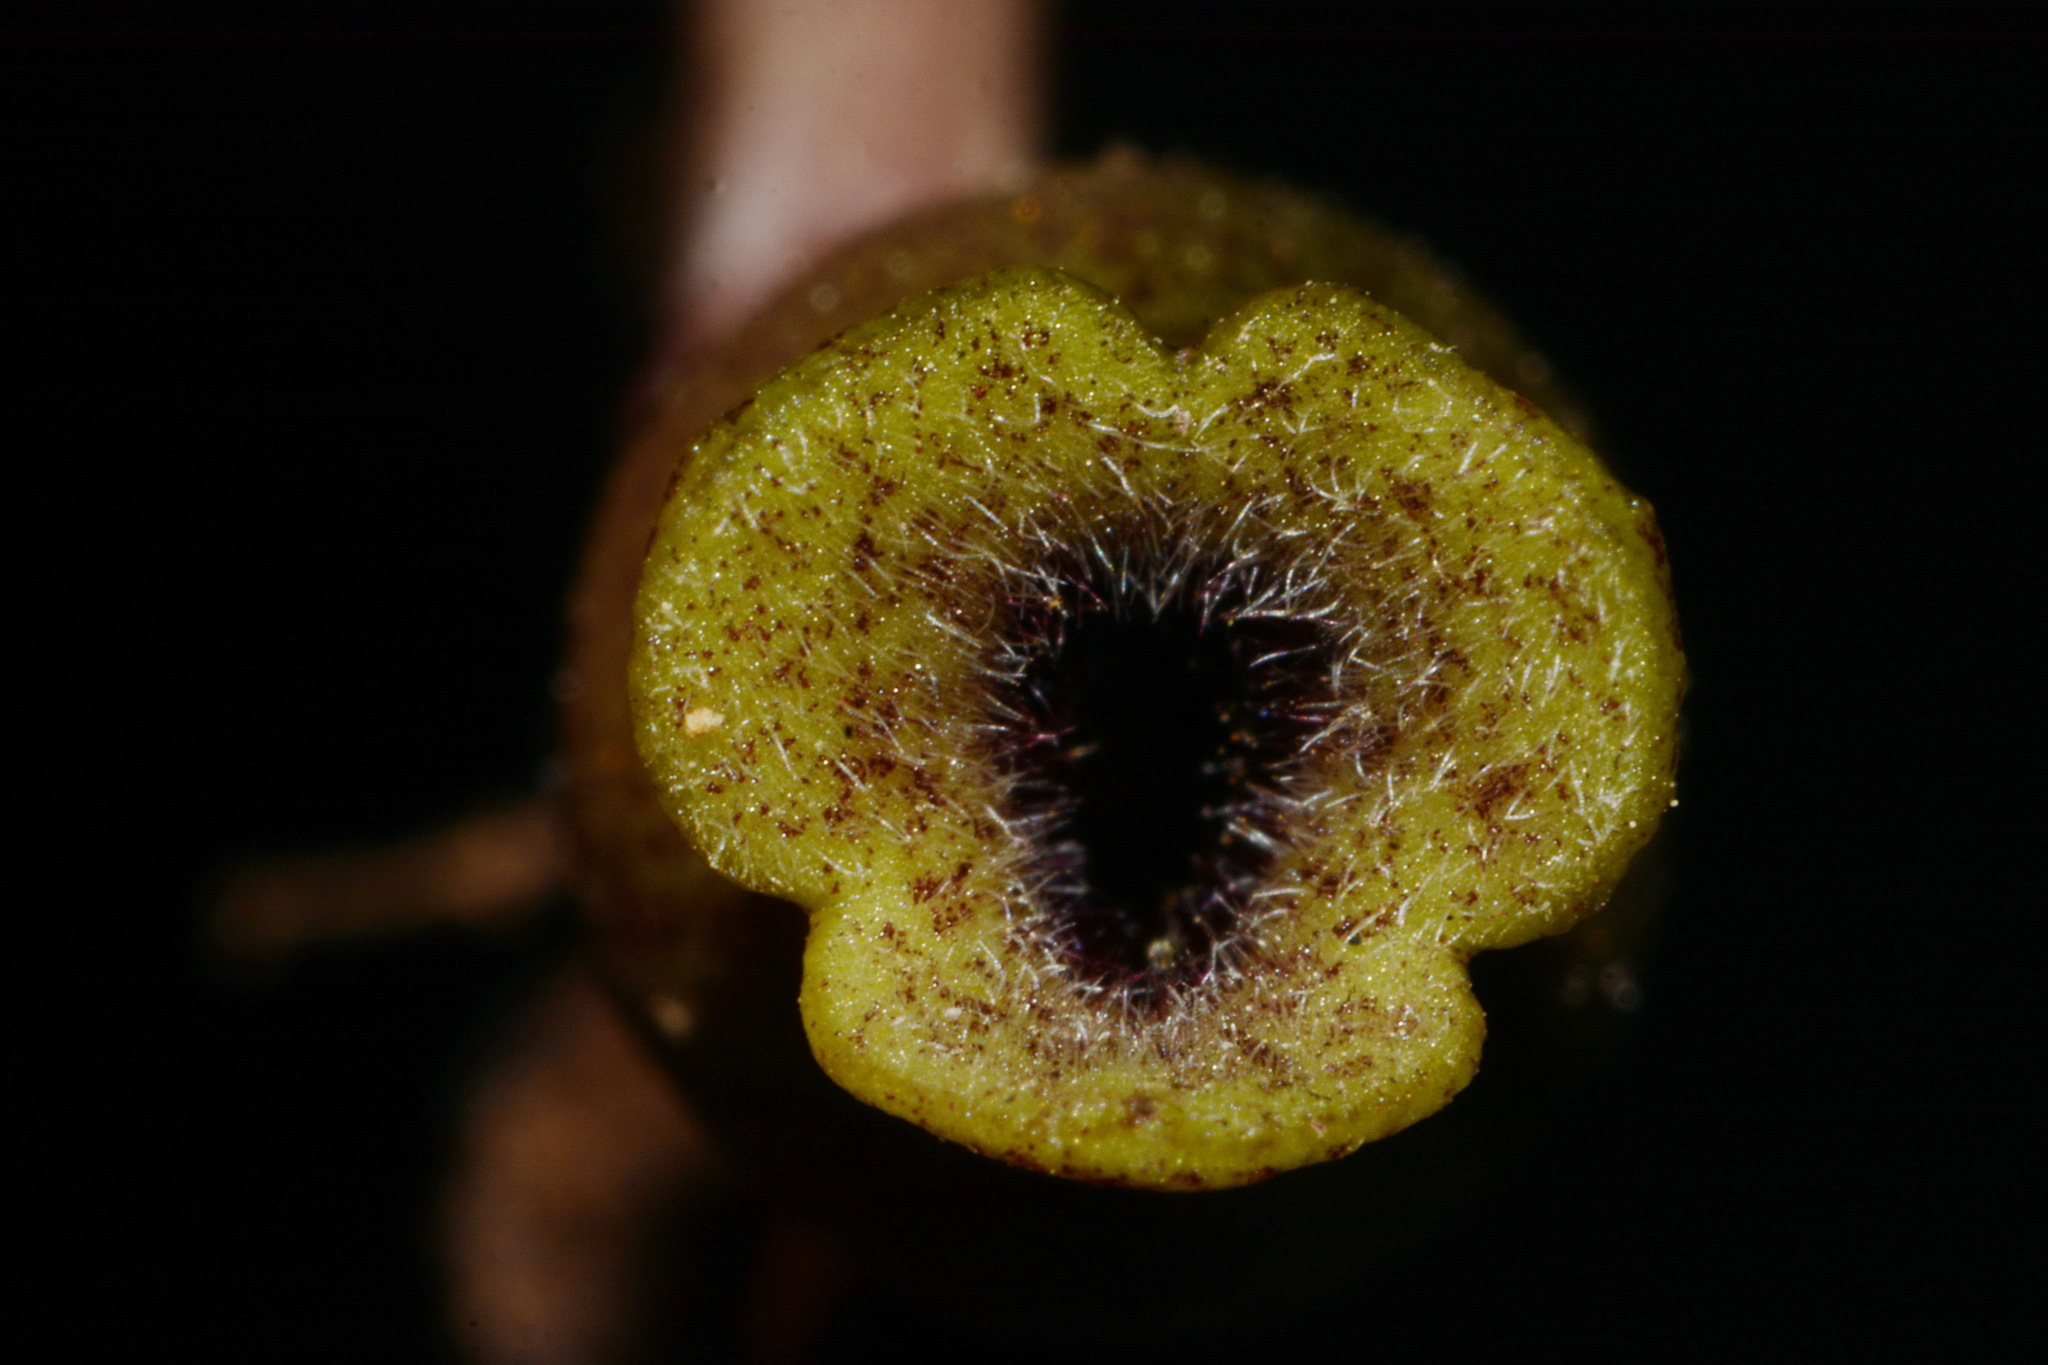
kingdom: Plantae
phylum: Tracheophyta
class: Magnoliopsida
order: Piperales
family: Aristolochiaceae
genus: Hexastylis
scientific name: Hexastylis arifolia
